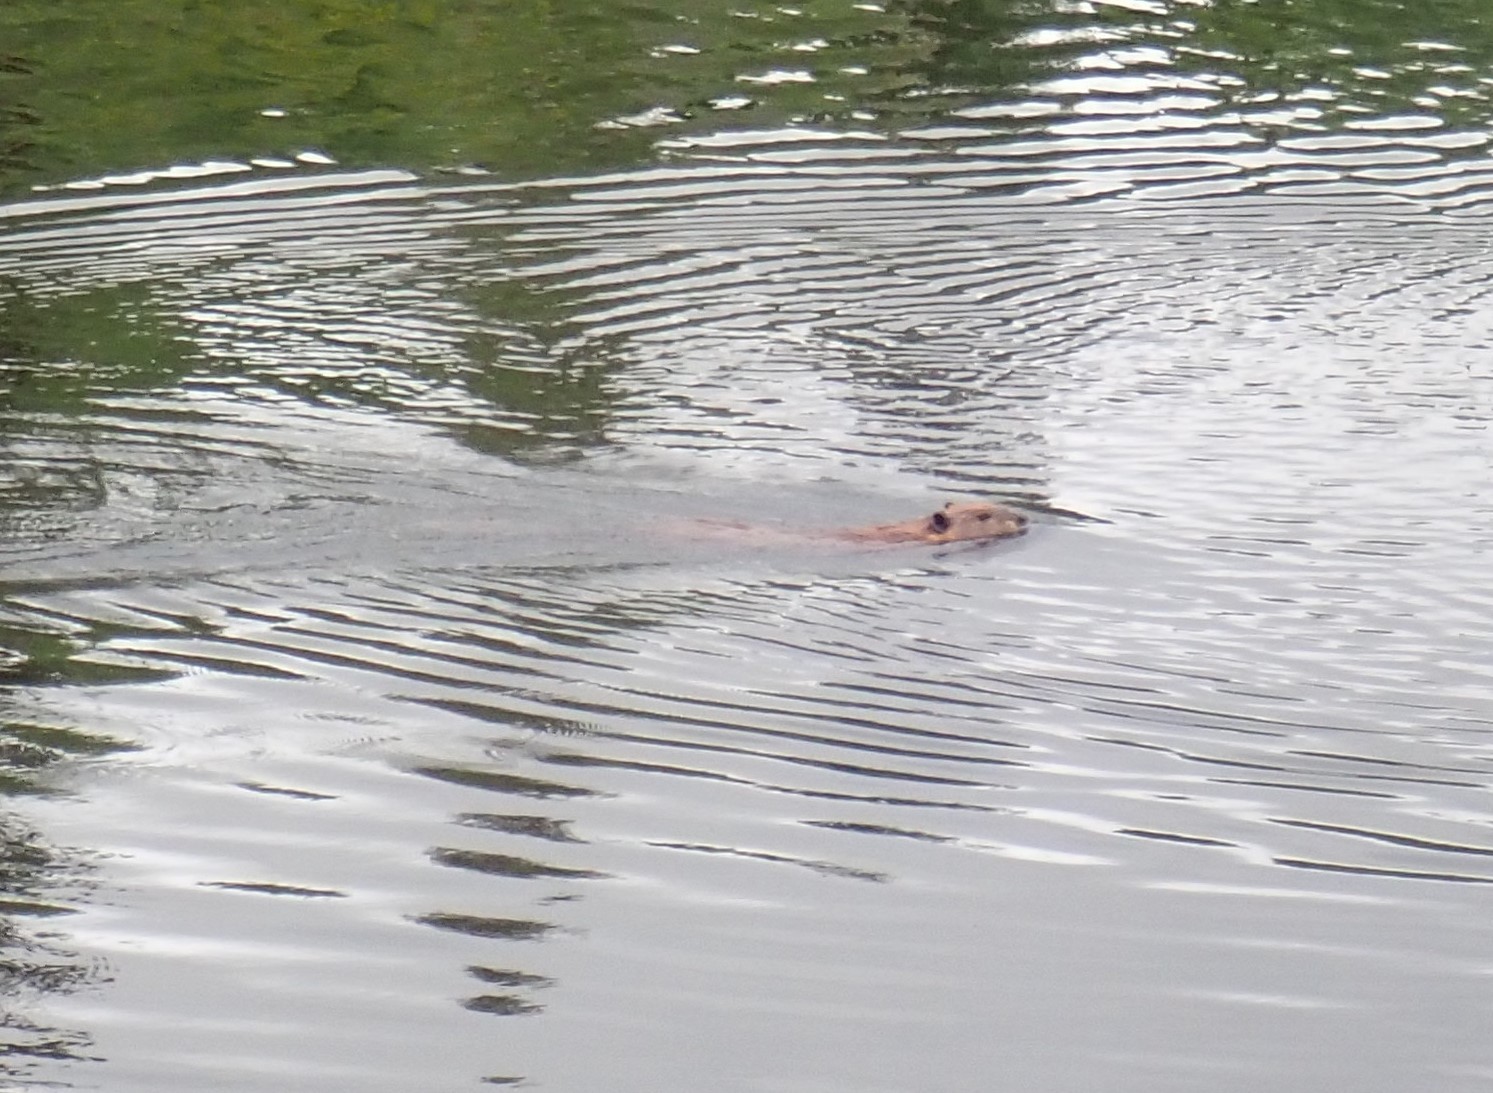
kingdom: Animalia
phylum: Chordata
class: Mammalia
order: Rodentia
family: Castoridae
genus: Castor
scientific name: Castor canadensis
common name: American beaver
